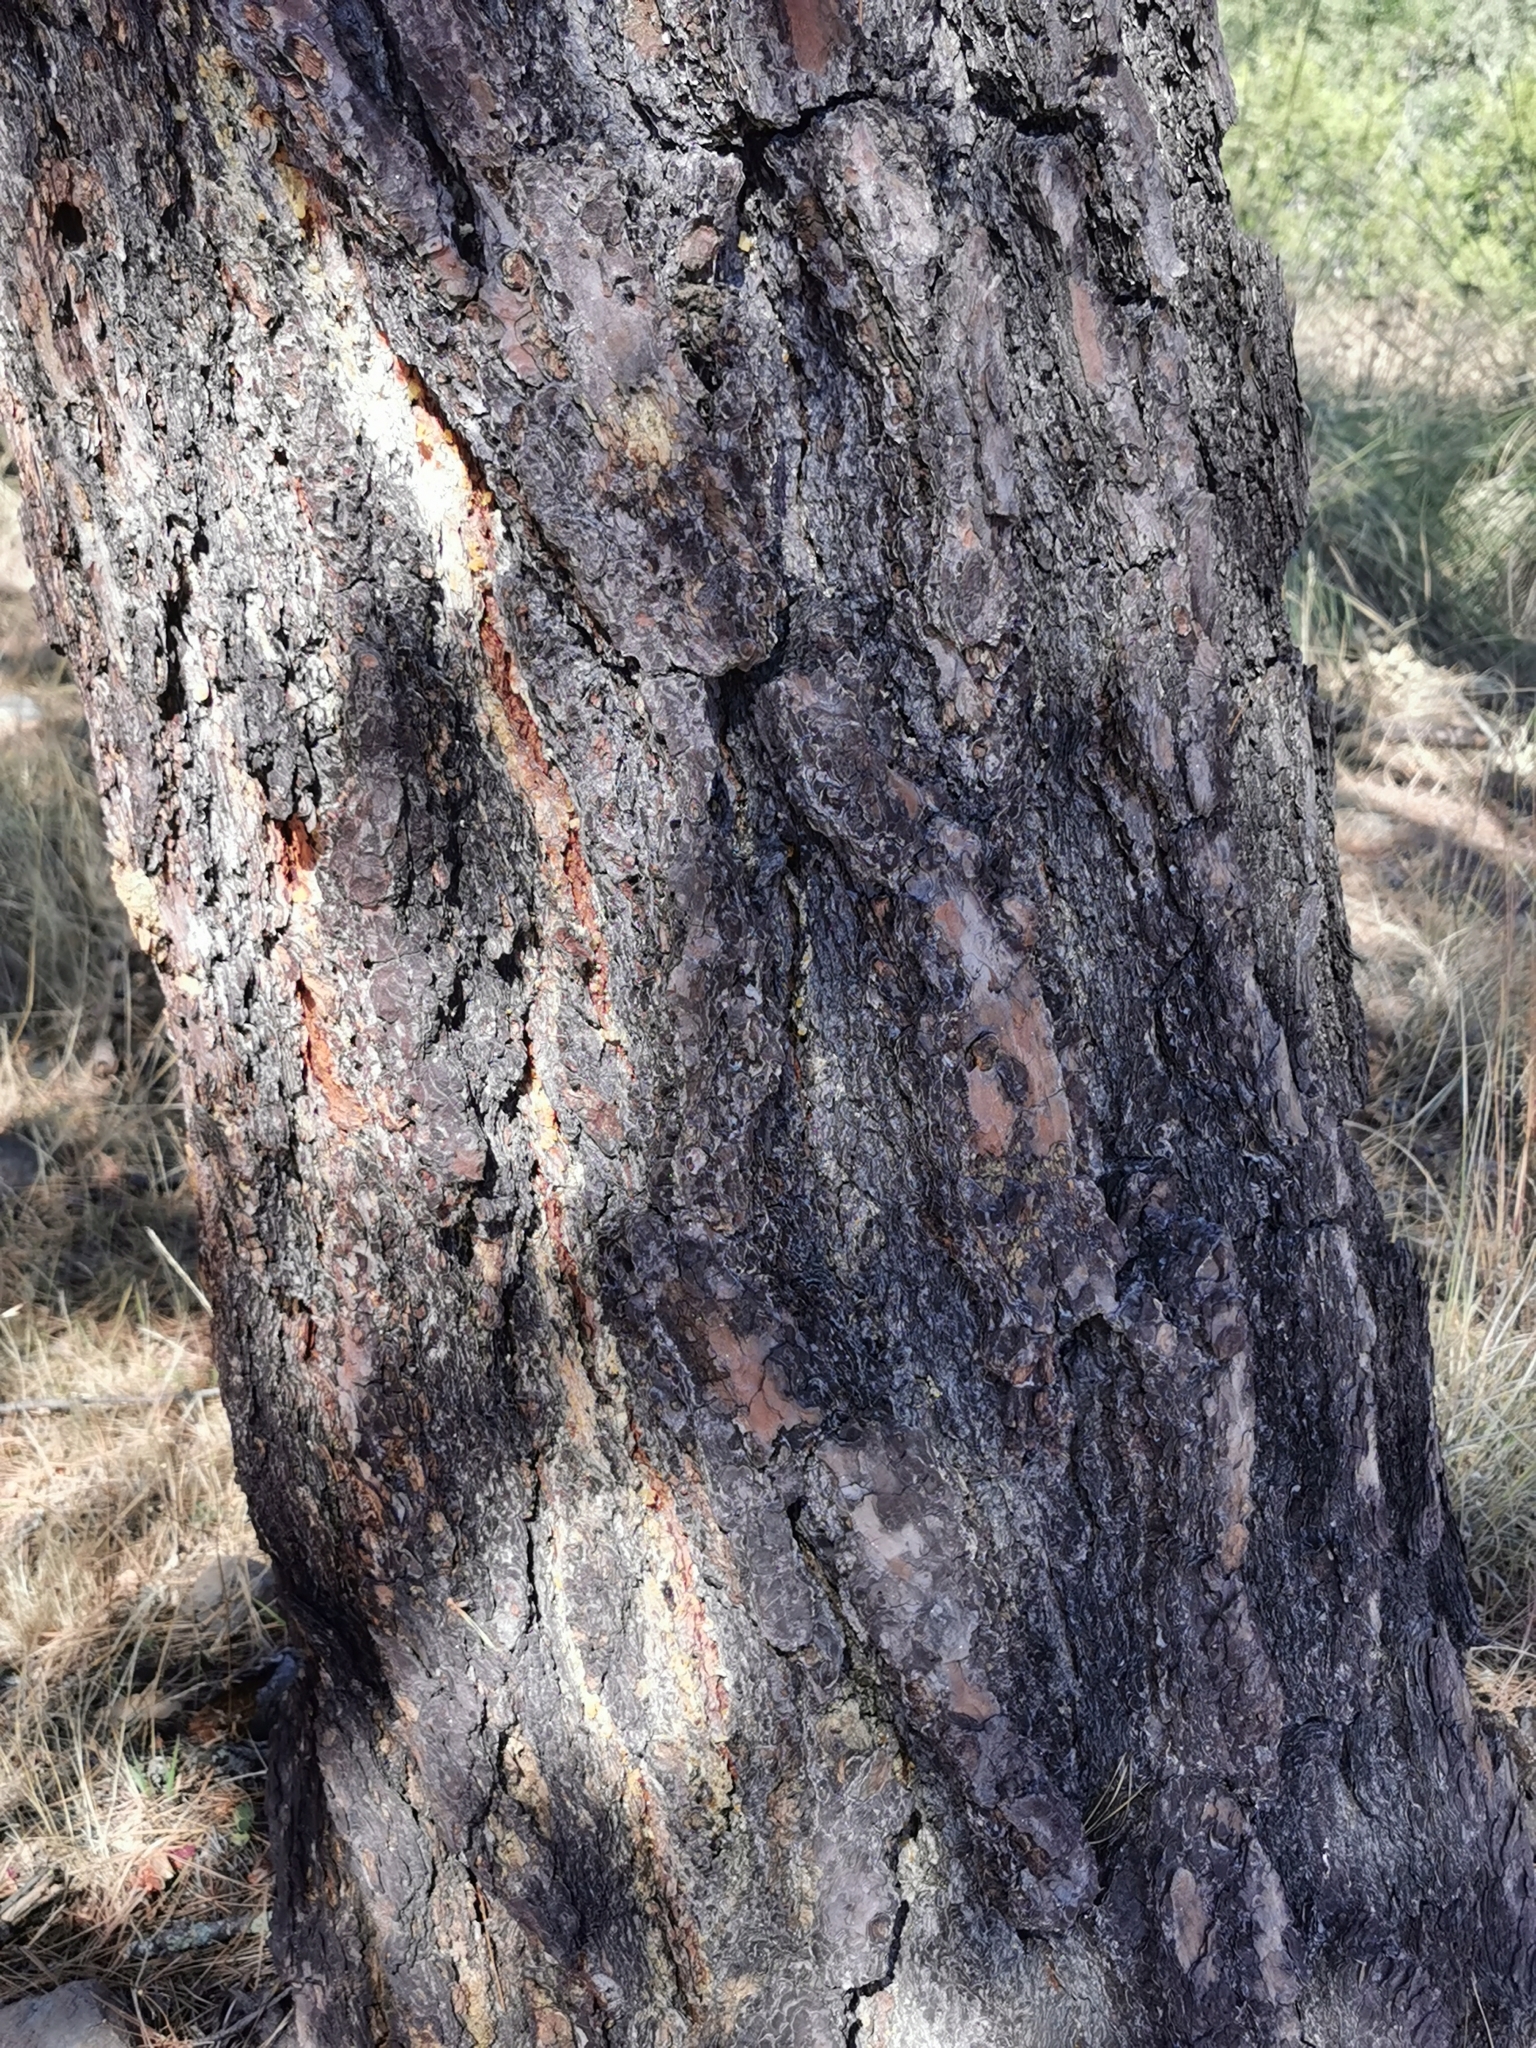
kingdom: Plantae
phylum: Tracheophyta
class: Pinopsida
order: Pinales
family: Pinaceae
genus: Pinus
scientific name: Pinus leiophylla
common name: Chihuahua pine
